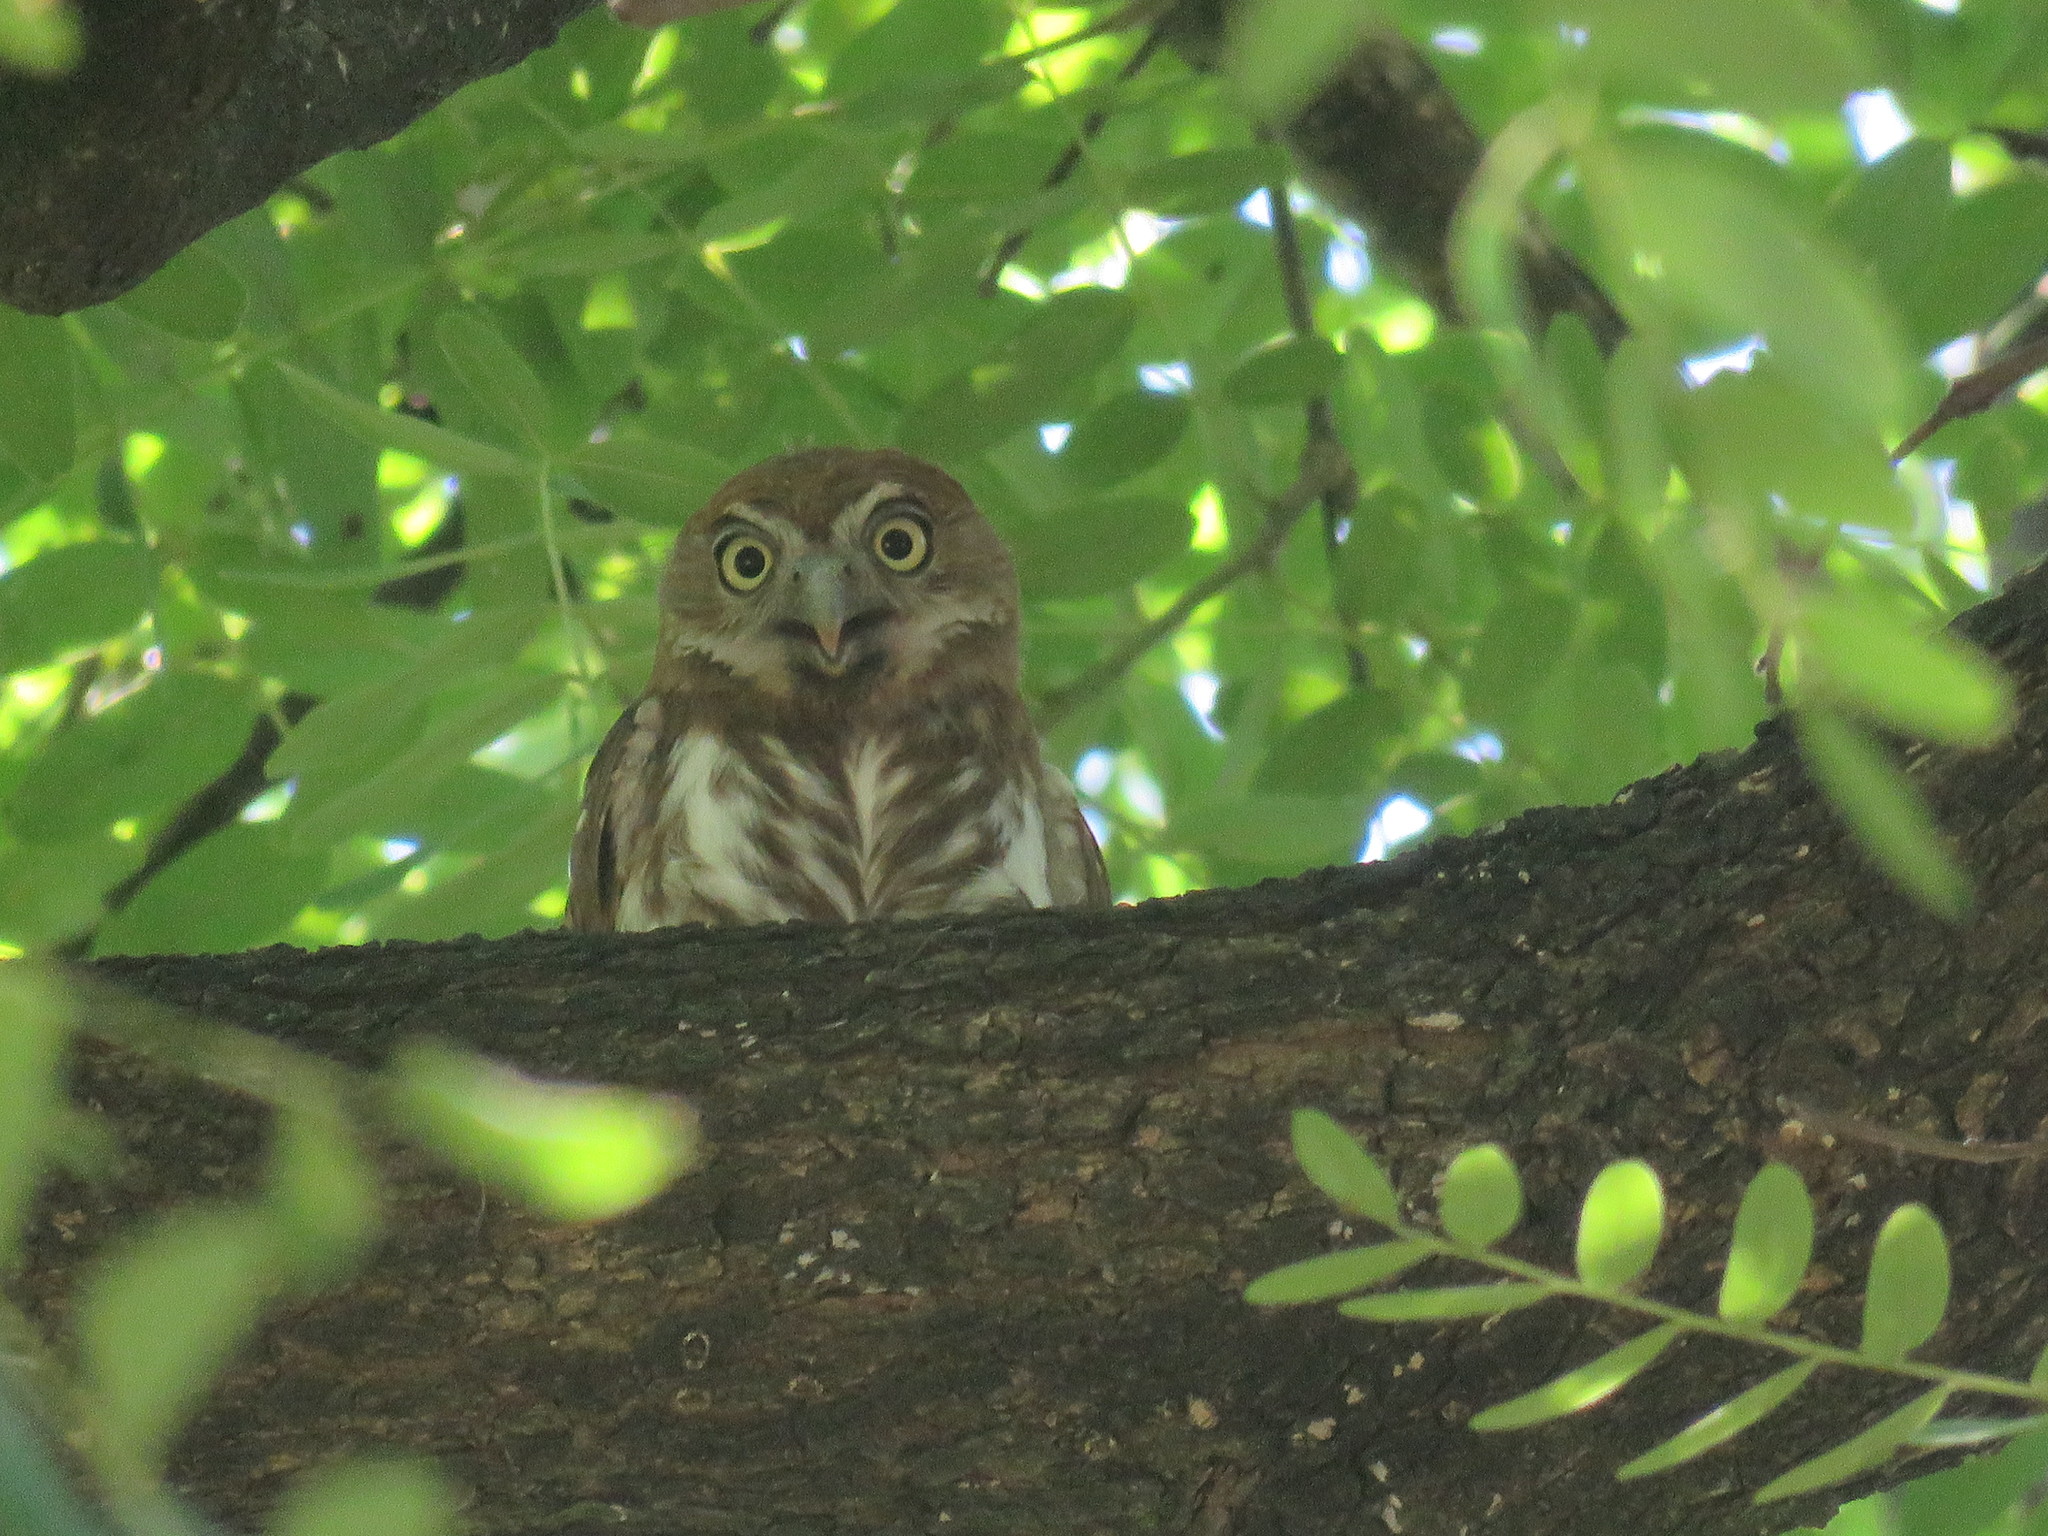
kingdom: Animalia
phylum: Chordata
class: Aves
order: Strigiformes
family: Strigidae
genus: Glaucidium
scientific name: Glaucidium brasilianum
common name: Ferruginous pygmy-owl
